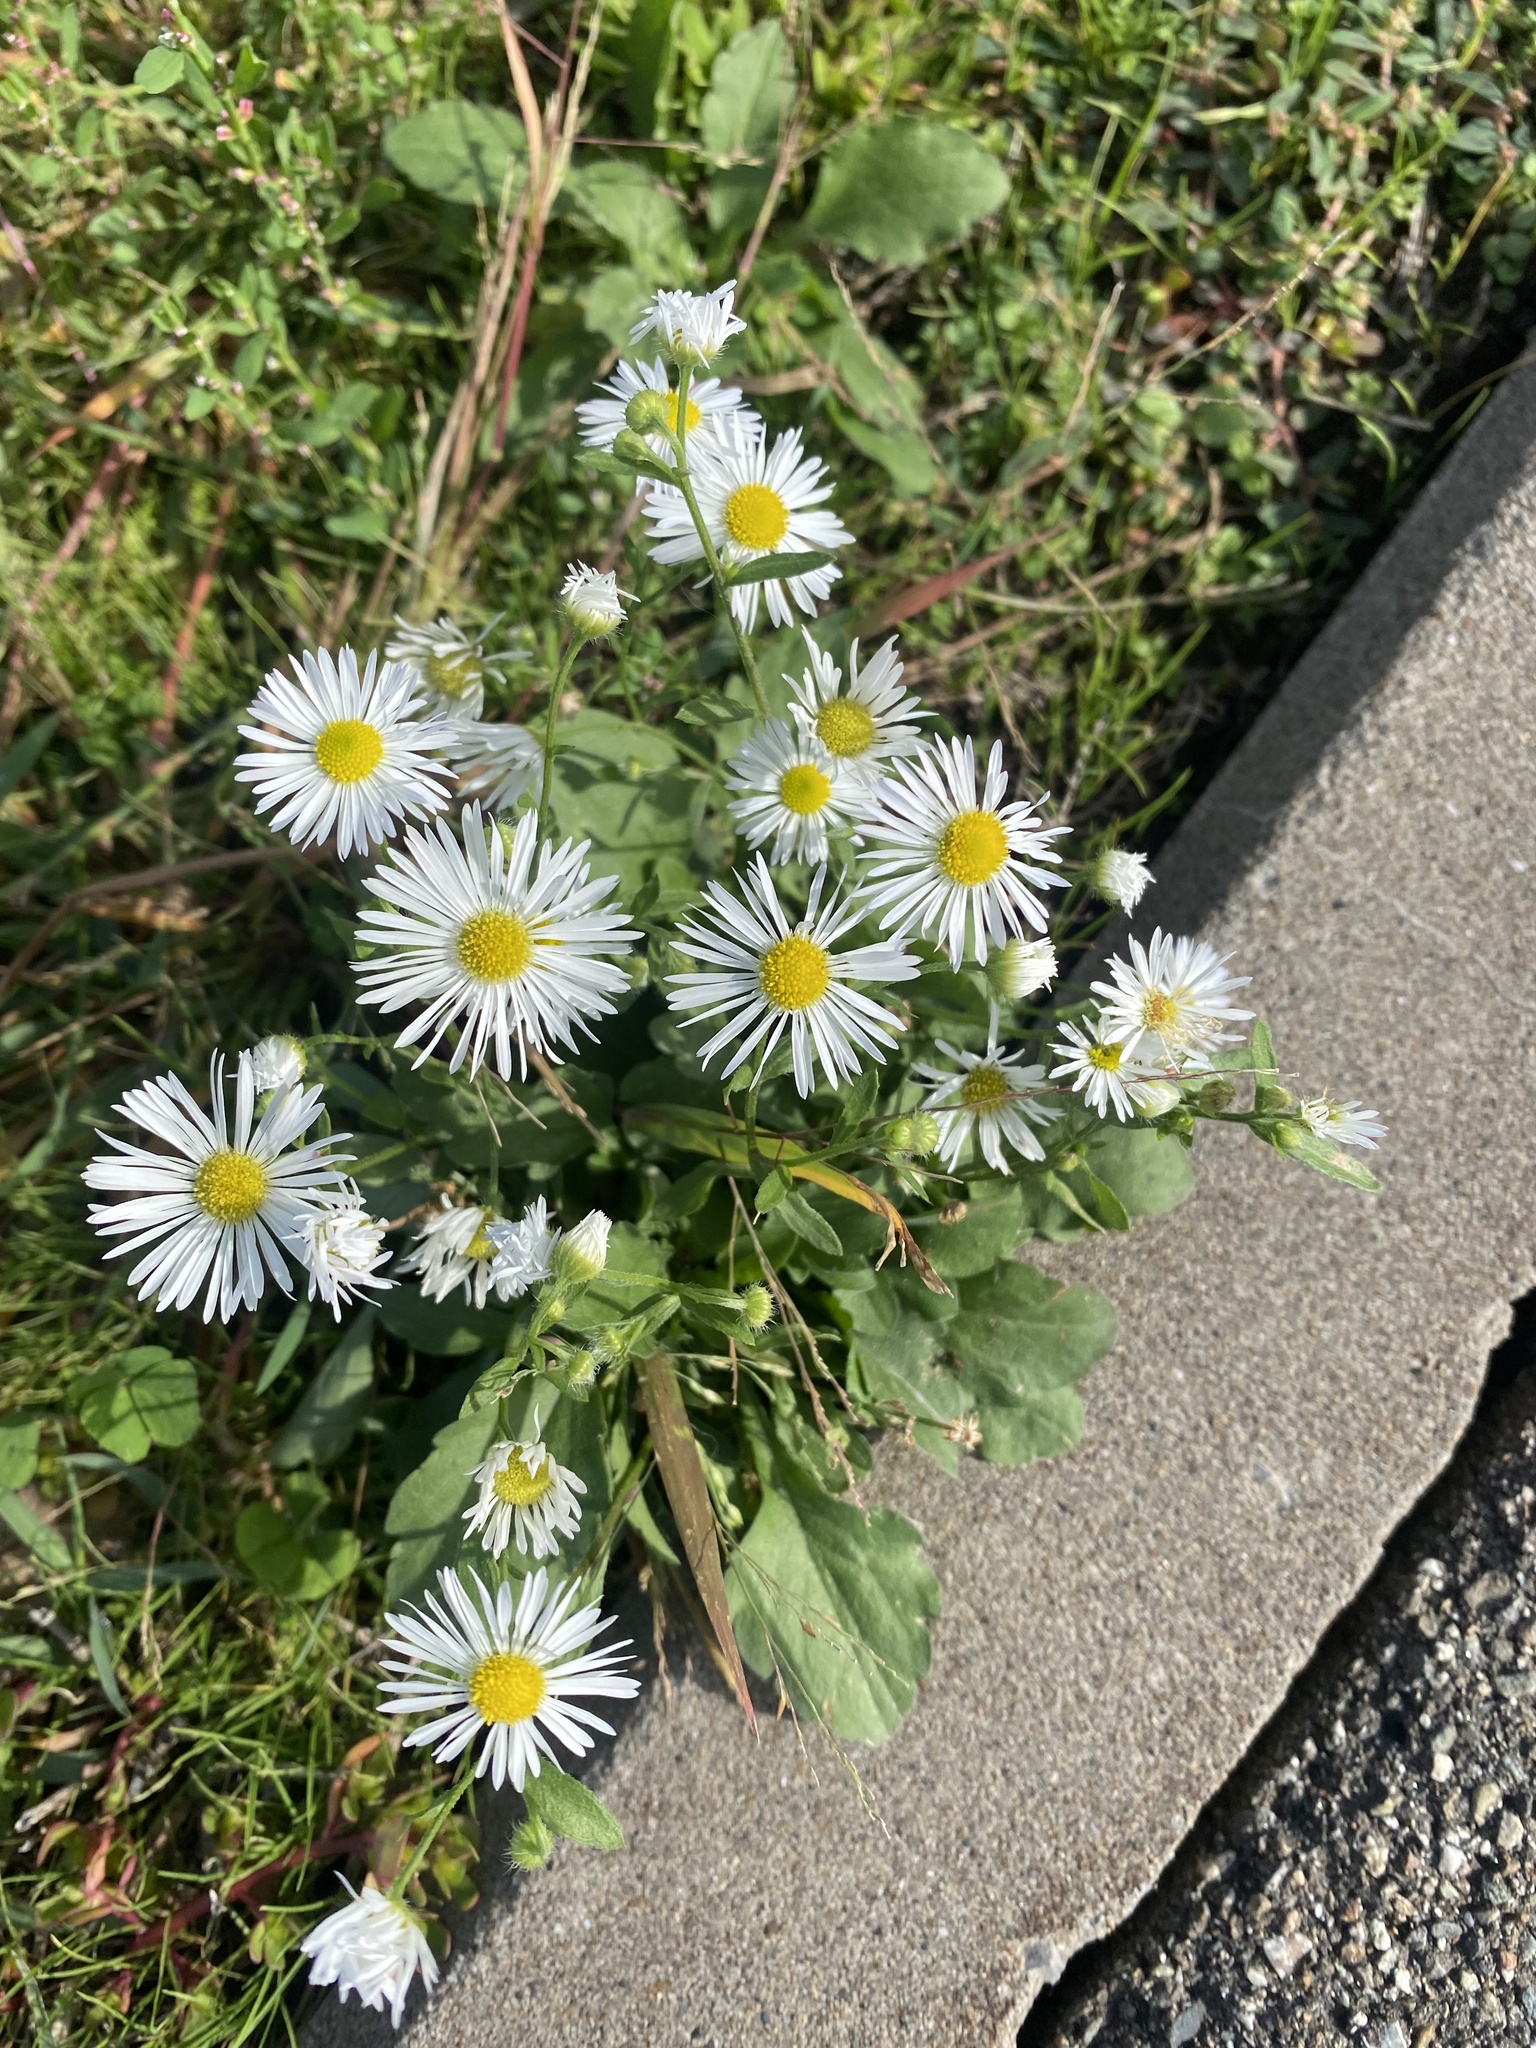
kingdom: Plantae
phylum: Tracheophyta
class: Magnoliopsida
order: Asterales
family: Asteraceae
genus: Erigeron
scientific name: Erigeron annuus
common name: Tall fleabane
